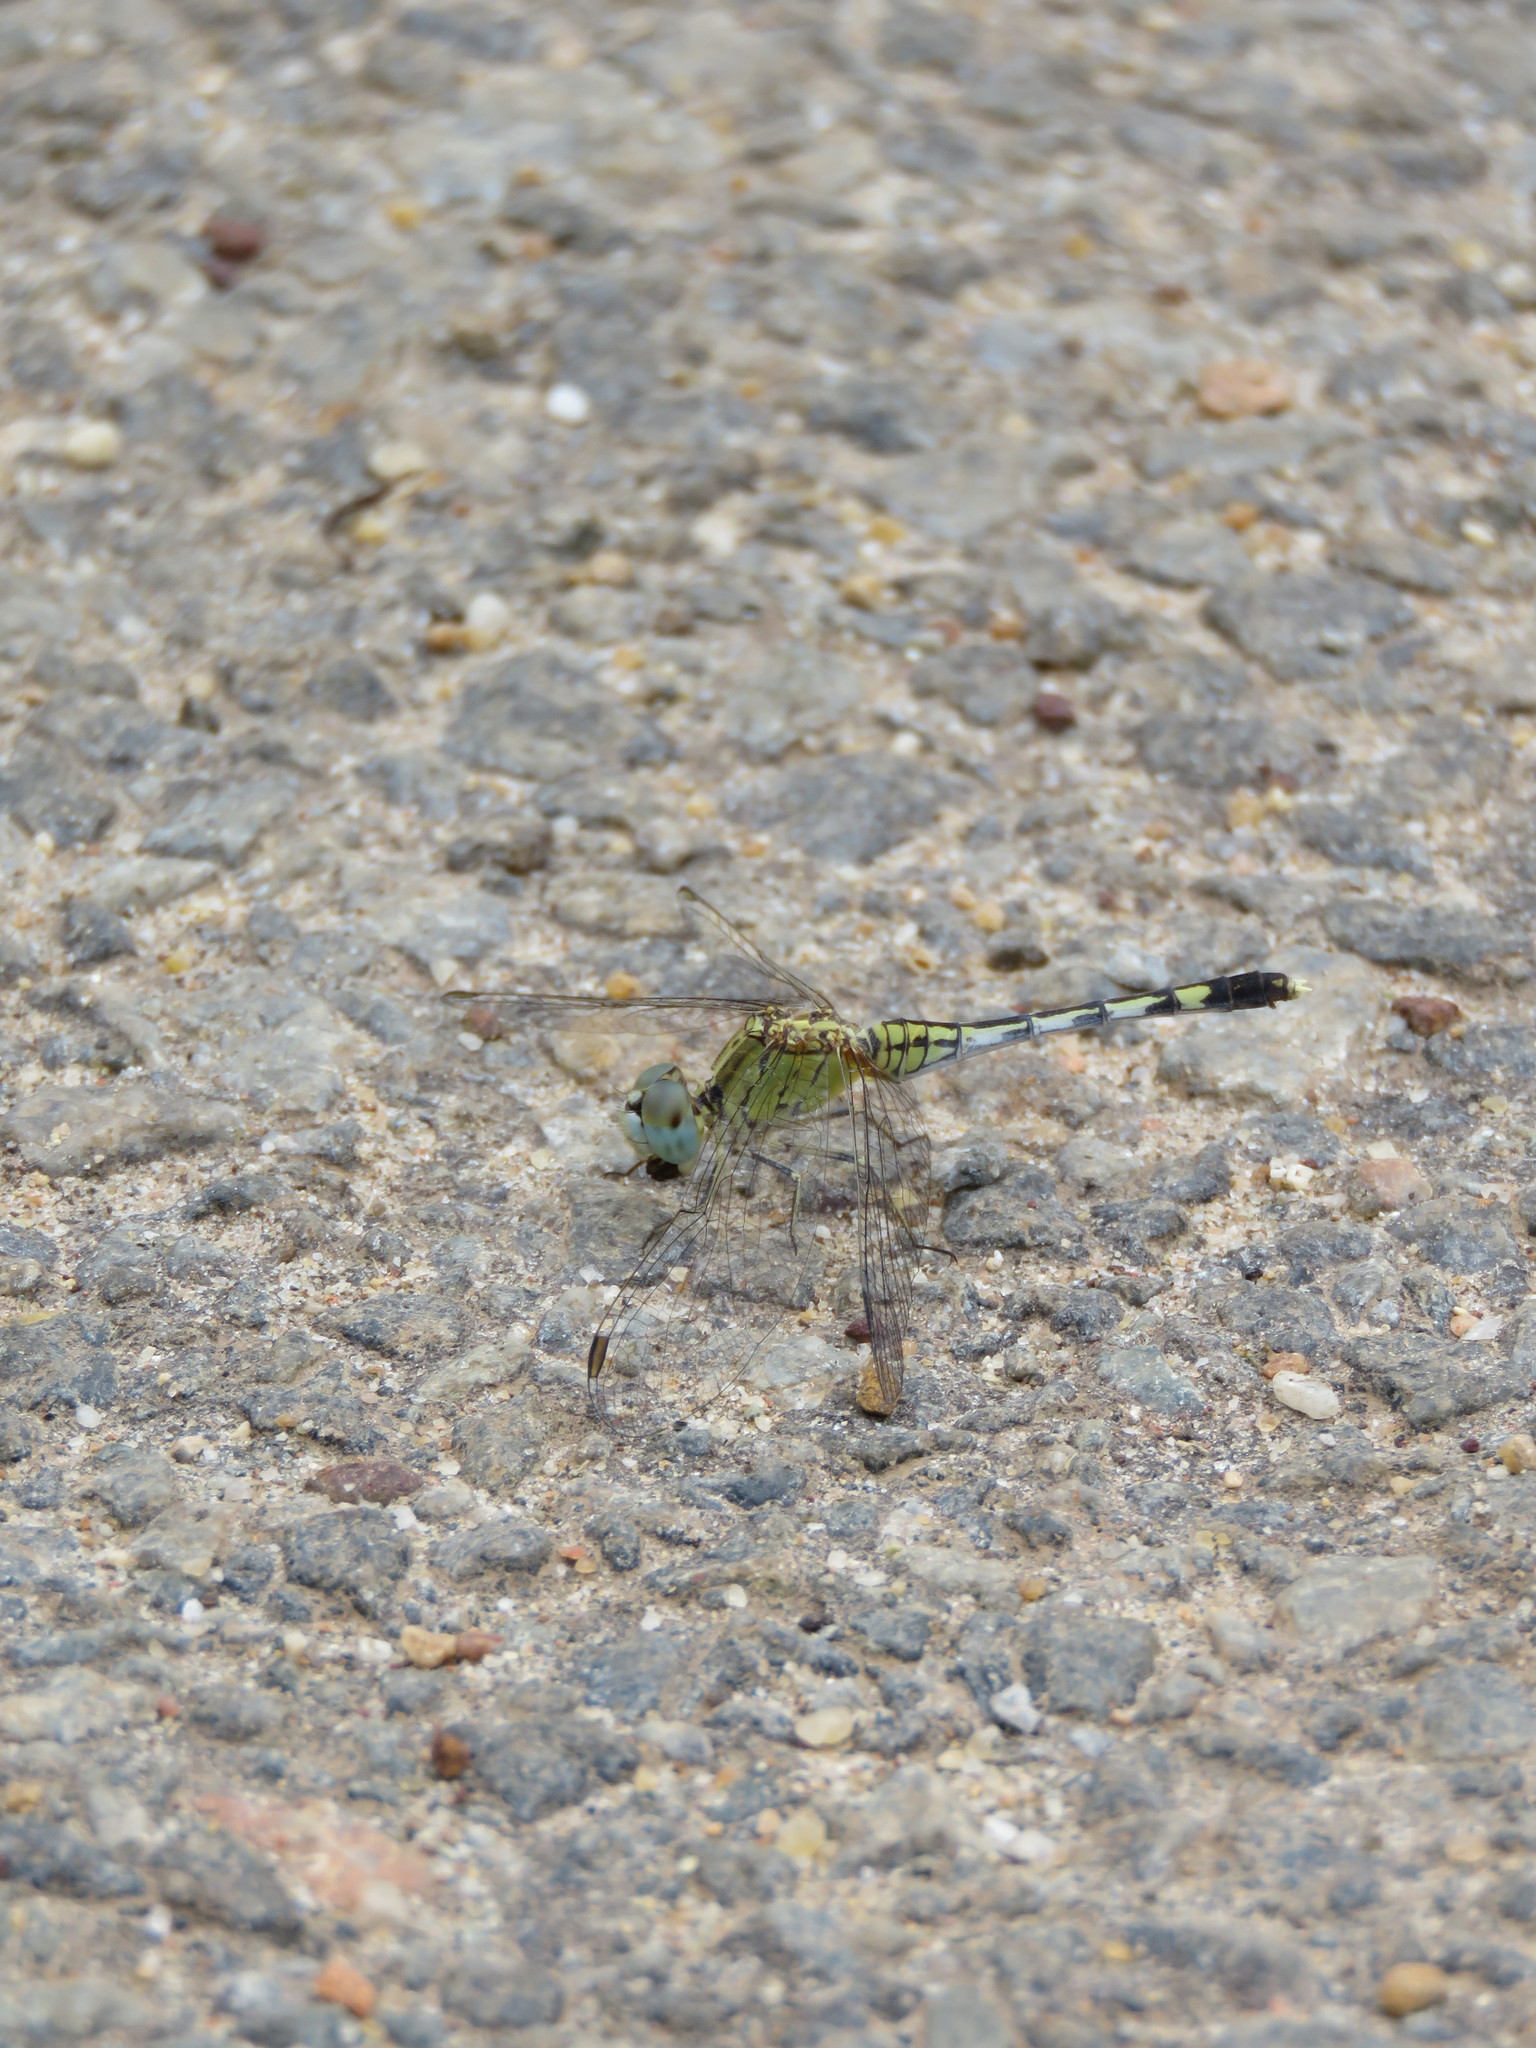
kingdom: Animalia
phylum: Arthropoda
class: Insecta
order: Odonata
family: Libellulidae
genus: Diplacodes
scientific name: Diplacodes trivialis
